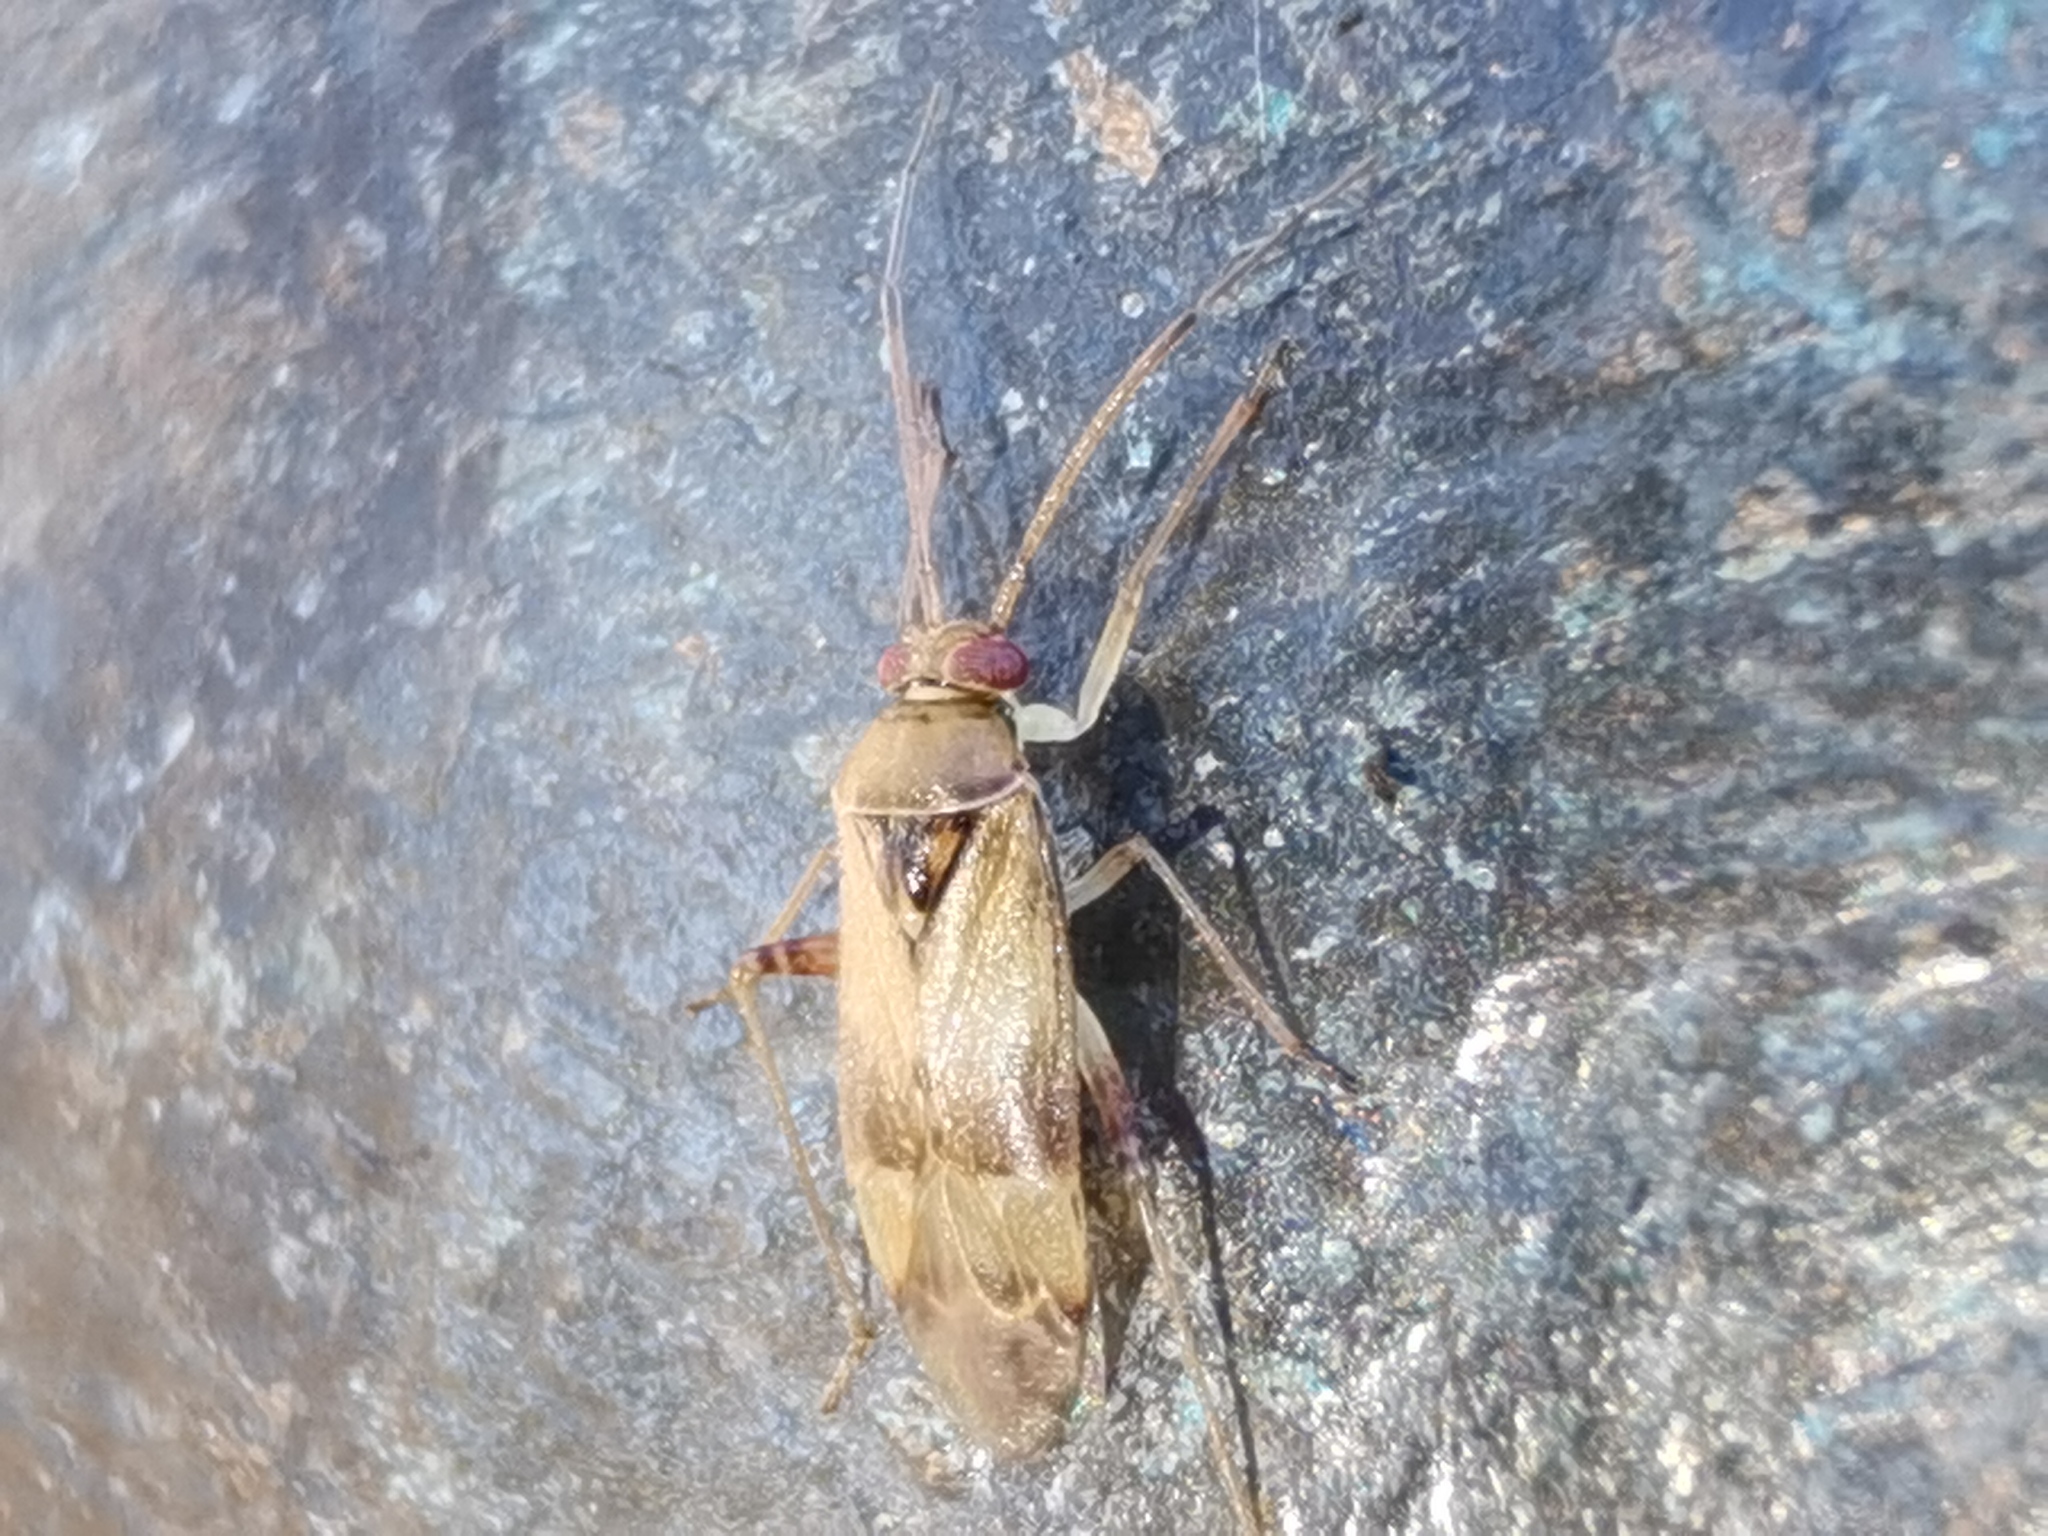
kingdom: Animalia
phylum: Arthropoda
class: Insecta
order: Hemiptera
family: Miridae
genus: Pinalitus
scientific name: Pinalitus cervinus
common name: Plant bug
